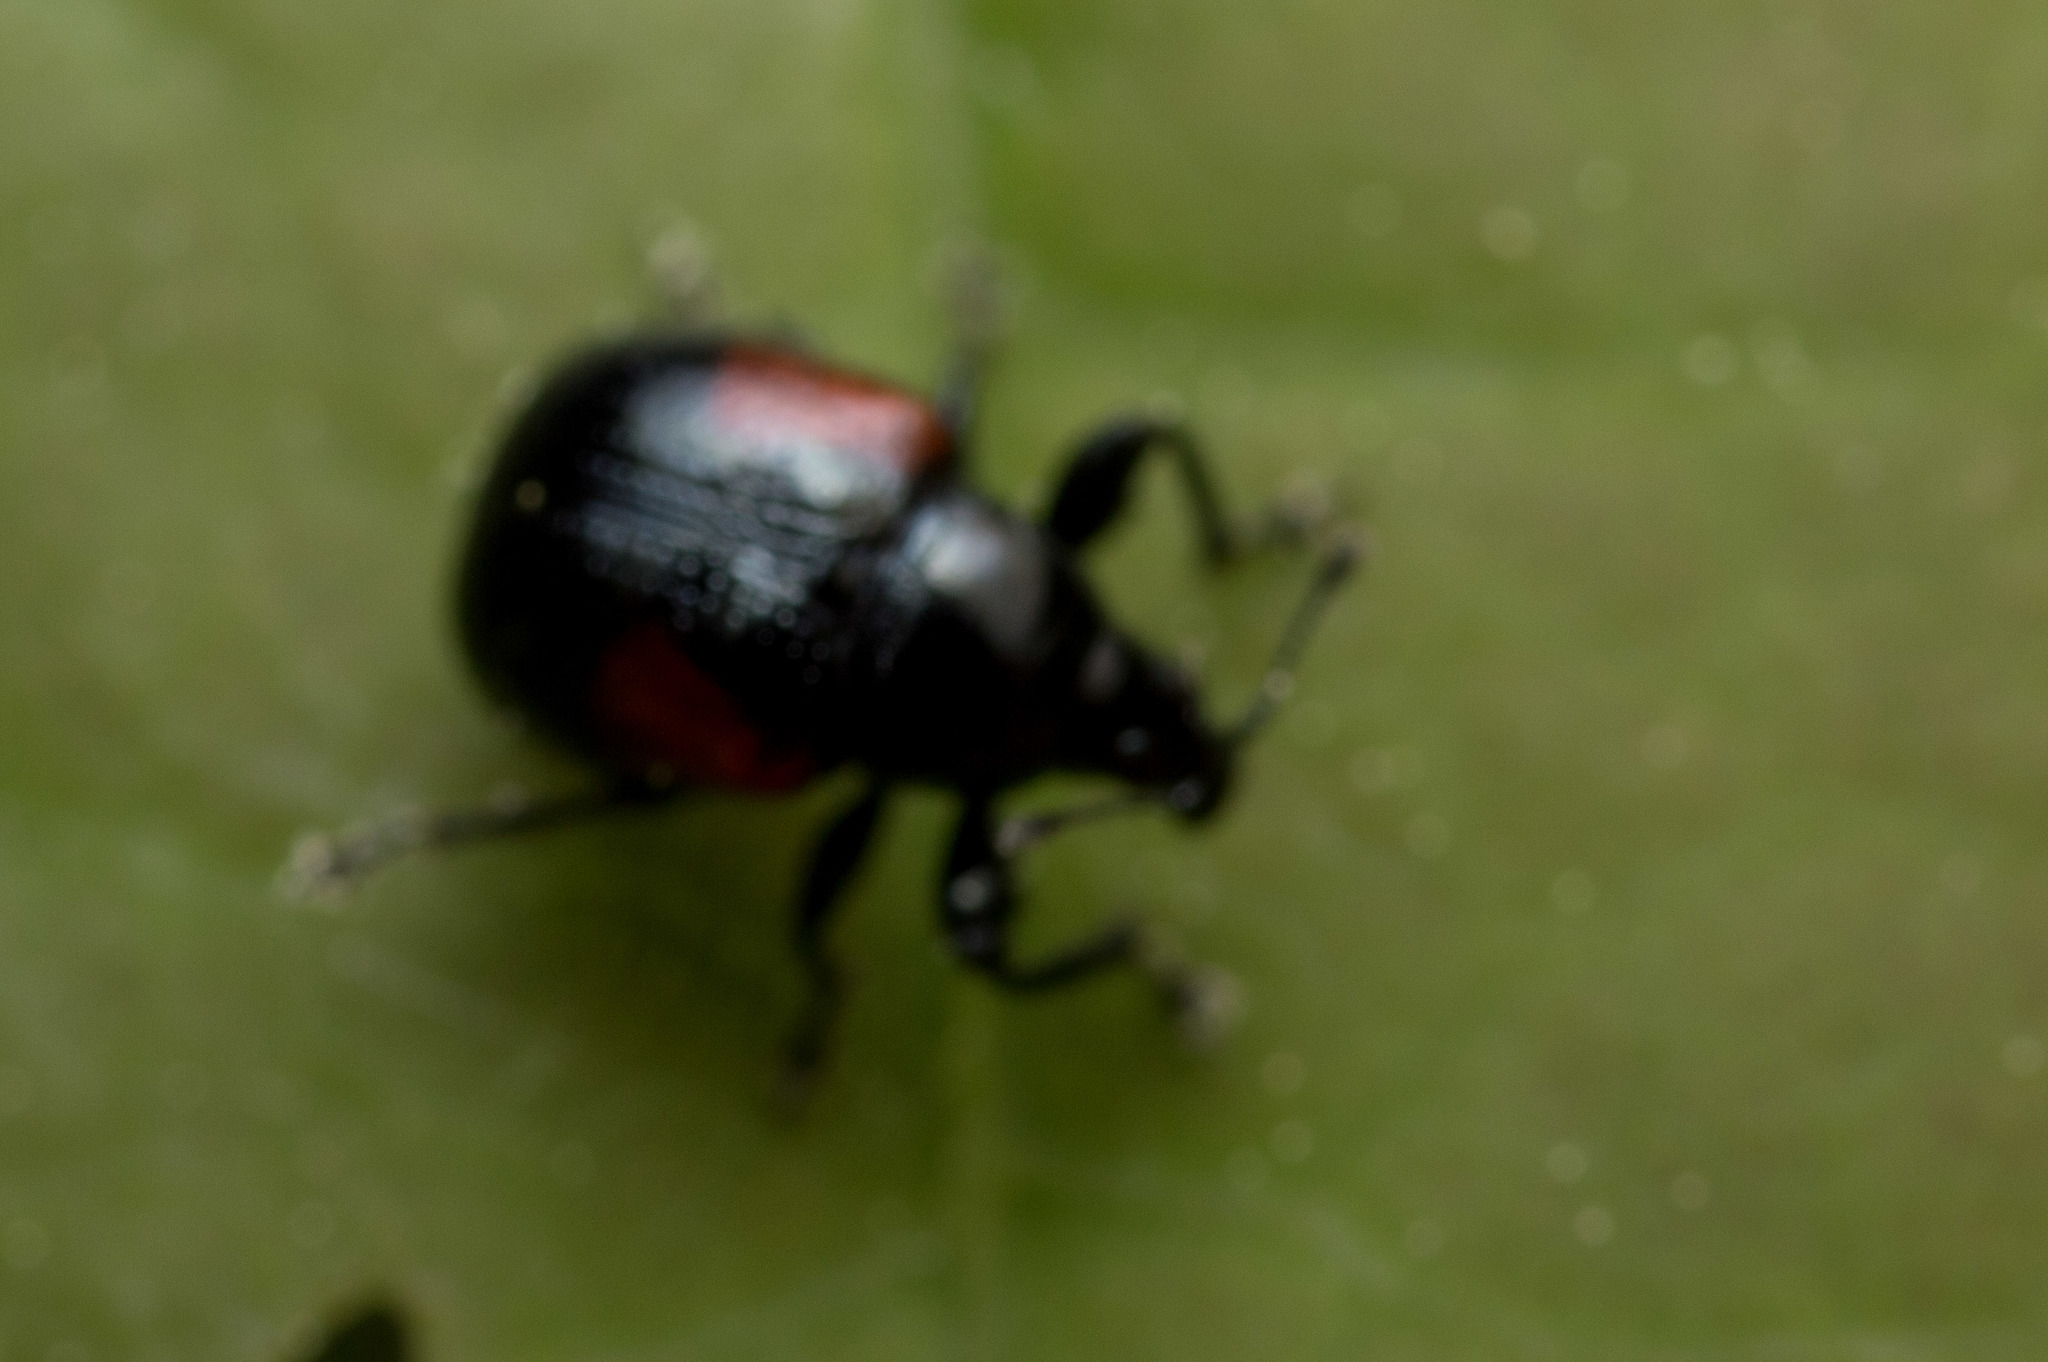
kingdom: Animalia
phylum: Arthropoda
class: Insecta
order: Coleoptera
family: Attelabidae
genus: Attelabus
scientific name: Attelabus bipustulatus
